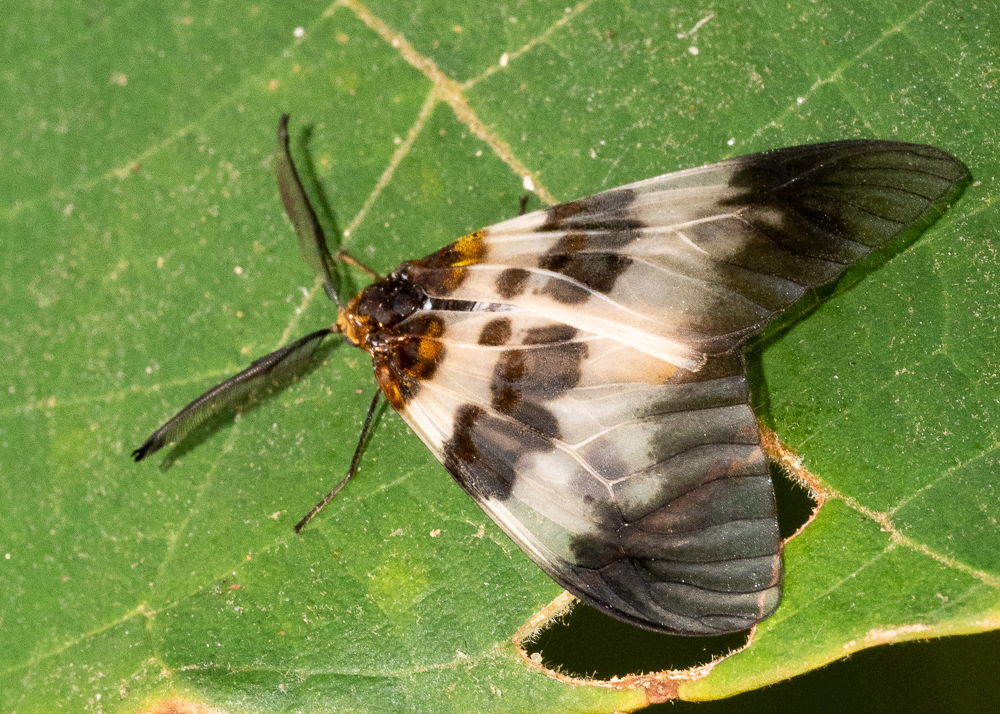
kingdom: Animalia
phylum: Arthropoda
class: Insecta
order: Lepidoptera
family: Zygaenidae
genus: Agalope
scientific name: Agalope glacialis
